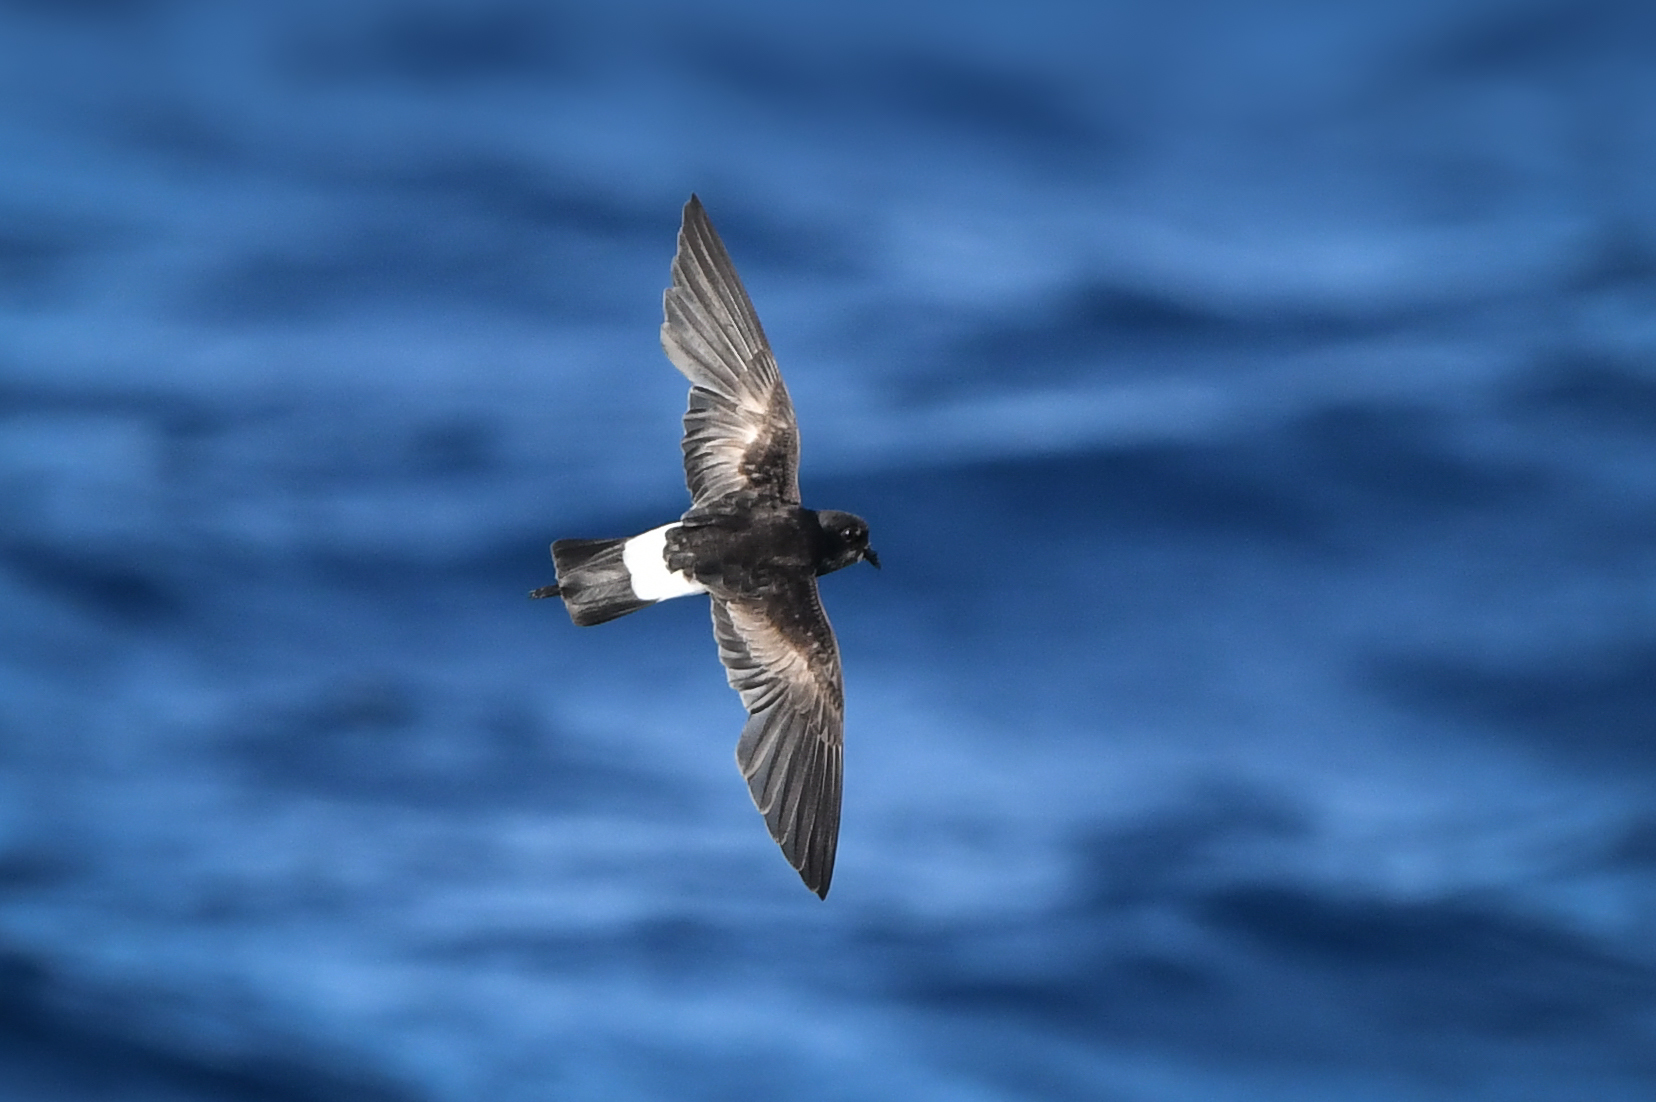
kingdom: Animalia
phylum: Chordata
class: Aves
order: Procellariiformes
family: Hydrobatidae
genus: Oceanites
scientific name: Oceanites oceanicus
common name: Wilson's storm petrel
